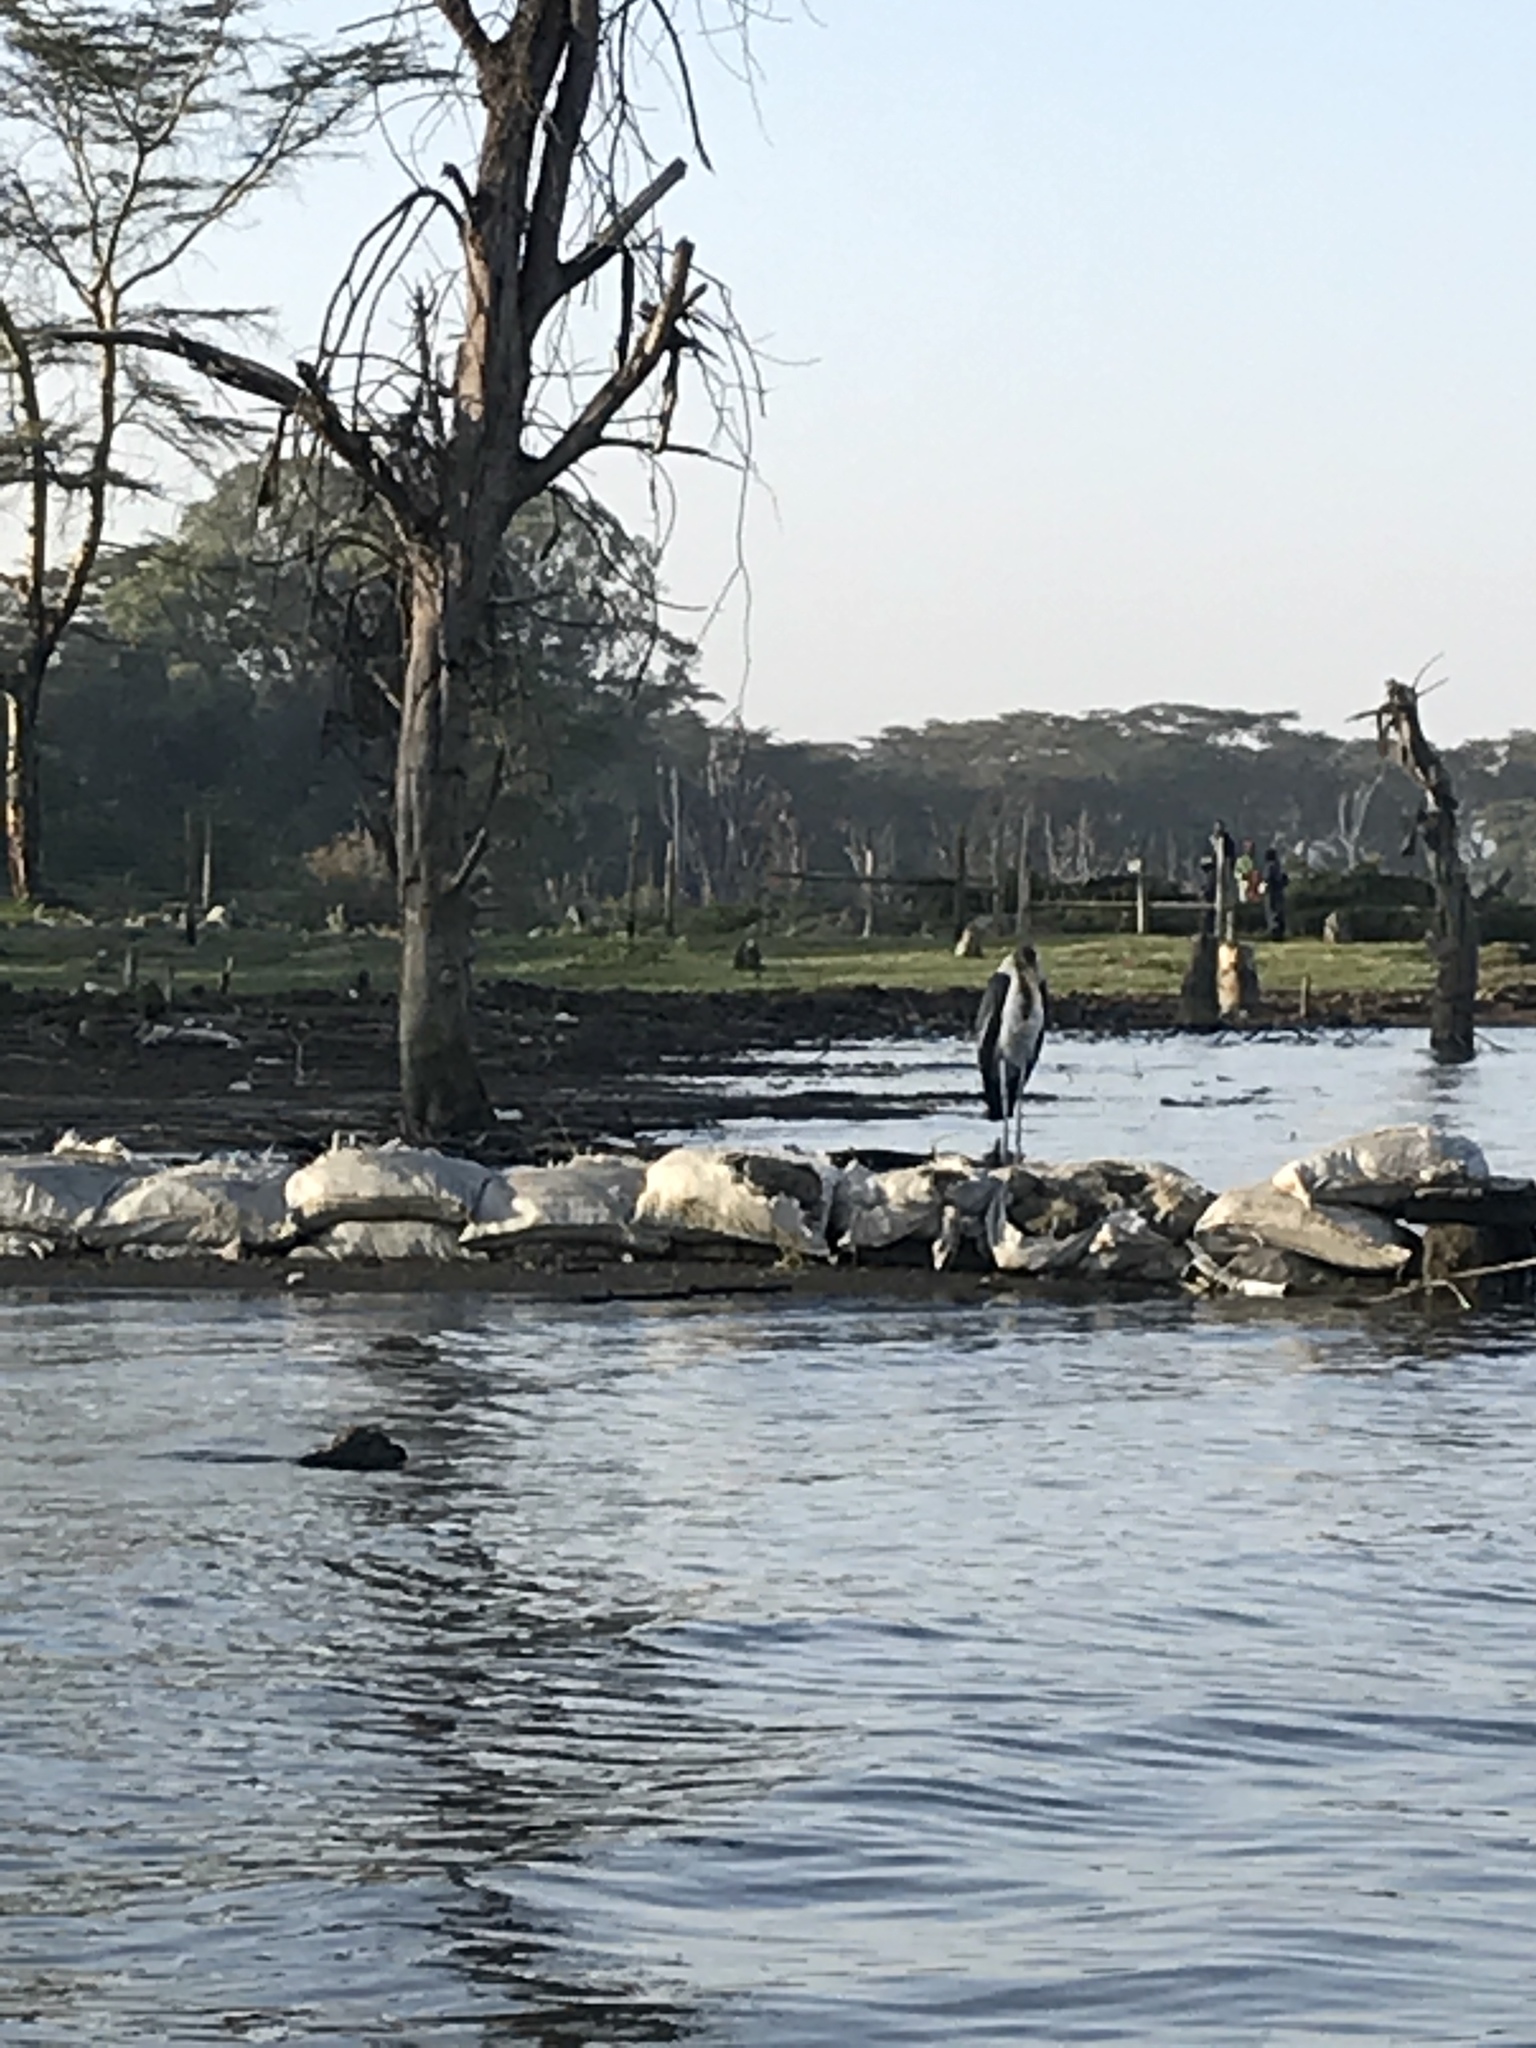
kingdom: Animalia
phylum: Chordata
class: Aves
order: Ciconiiformes
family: Ciconiidae
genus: Leptoptilos
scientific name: Leptoptilos crumenifer
